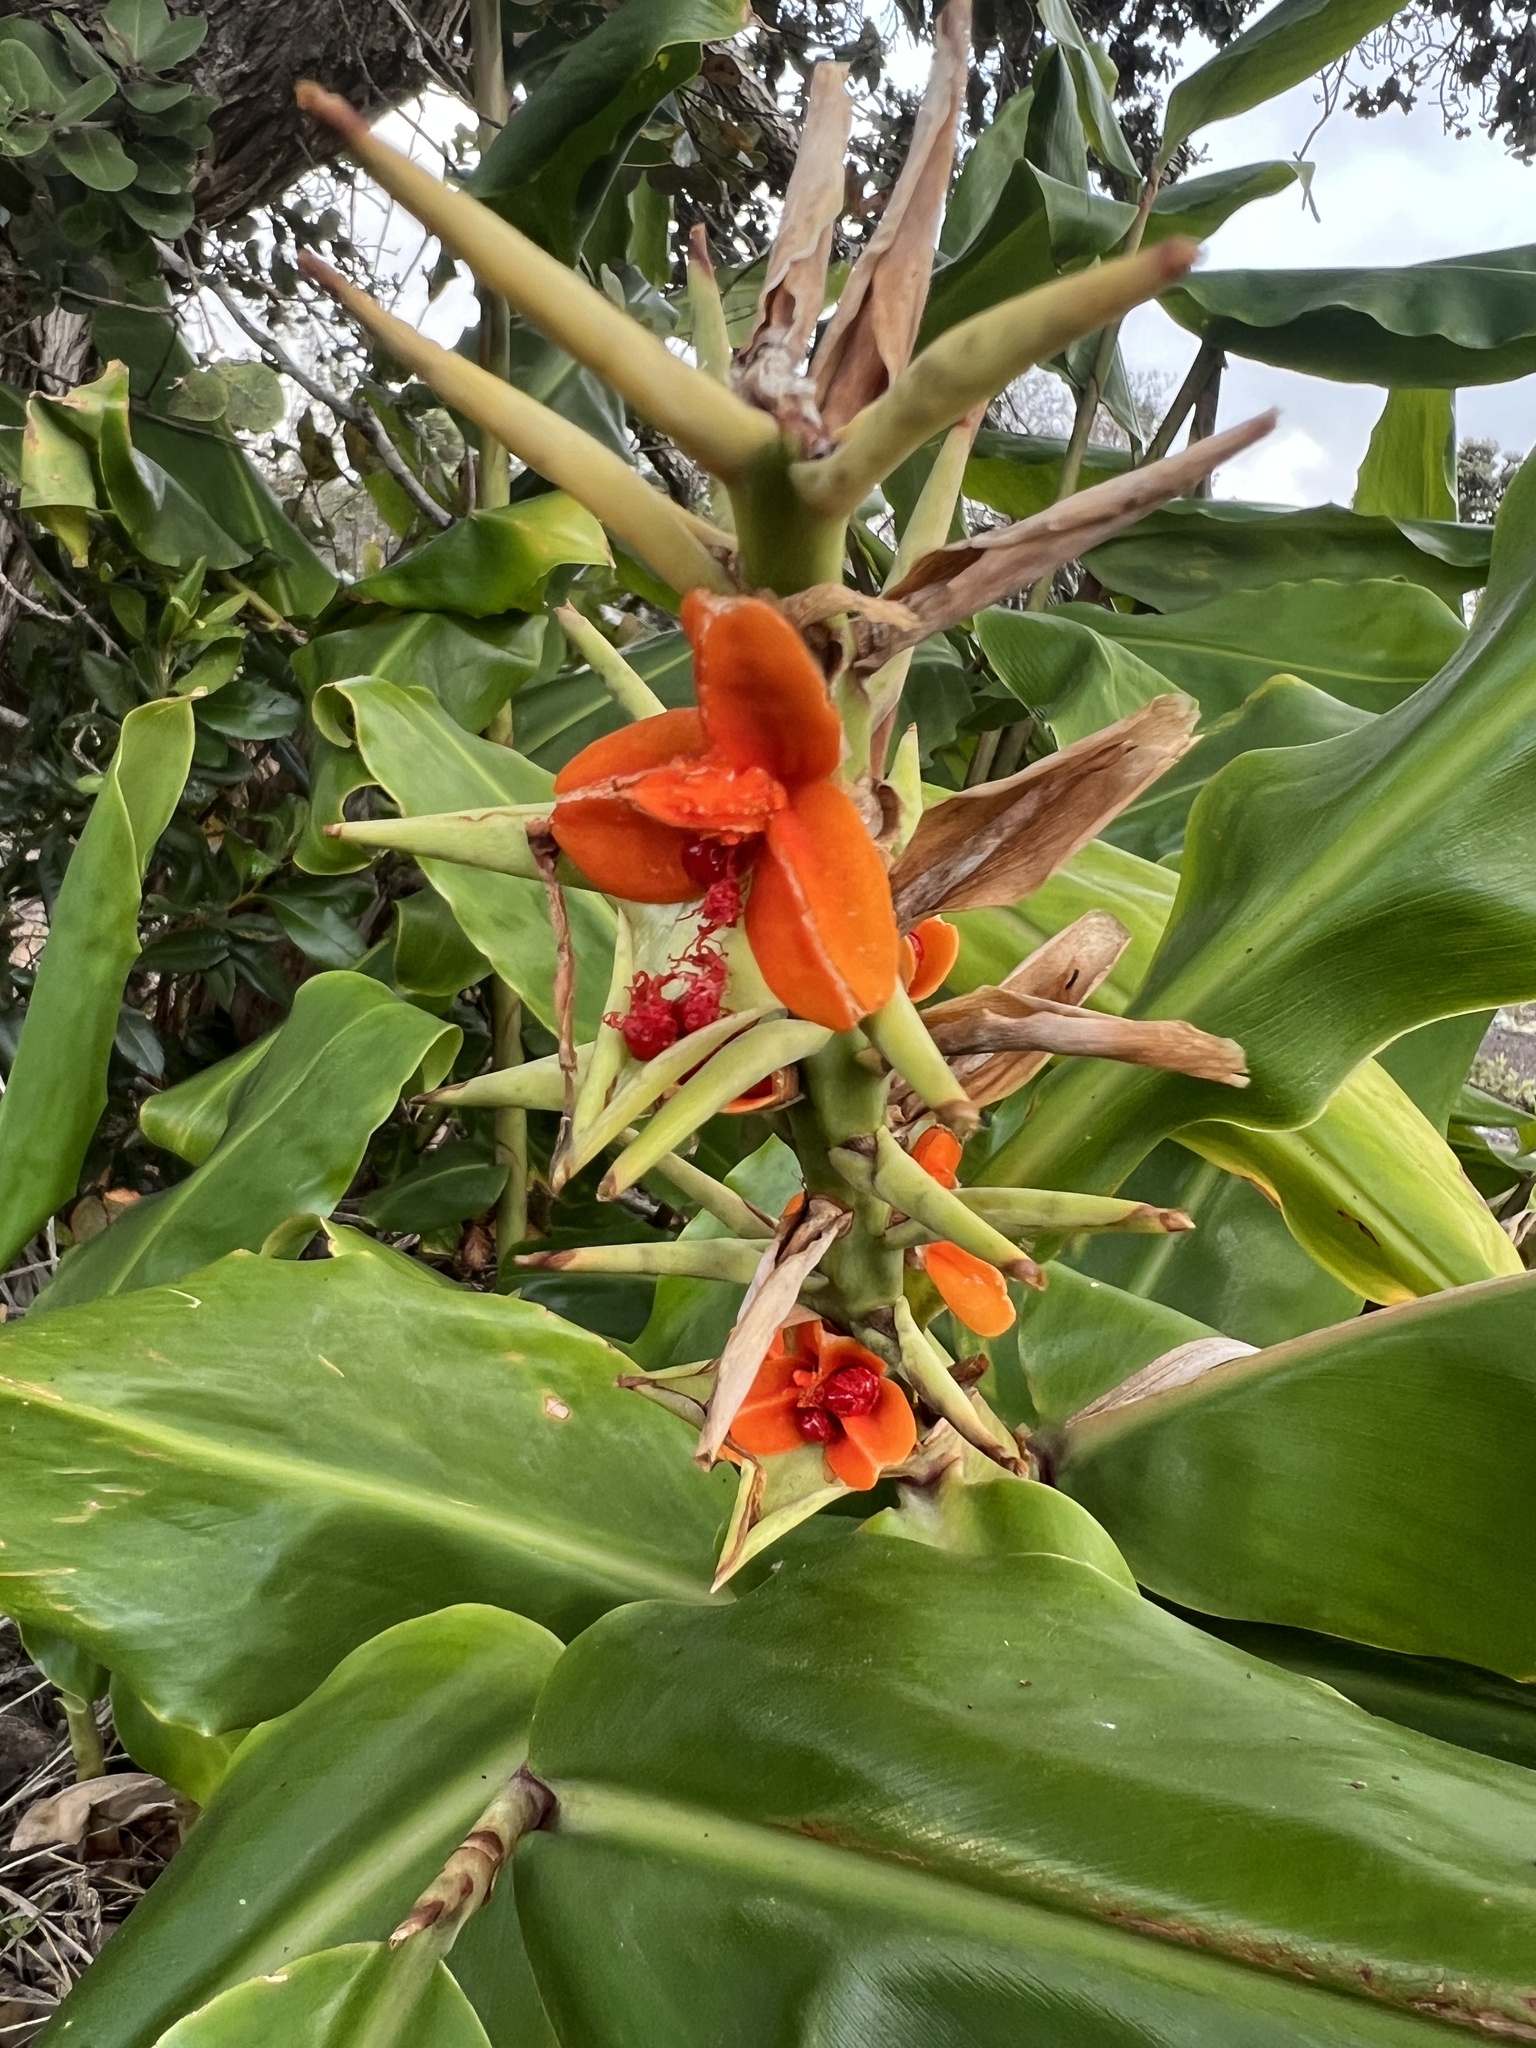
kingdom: Plantae
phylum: Tracheophyta
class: Liliopsida
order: Zingiberales
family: Zingiberaceae
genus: Hedychium
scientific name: Hedychium gardnerianum
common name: Himalayan ginger
